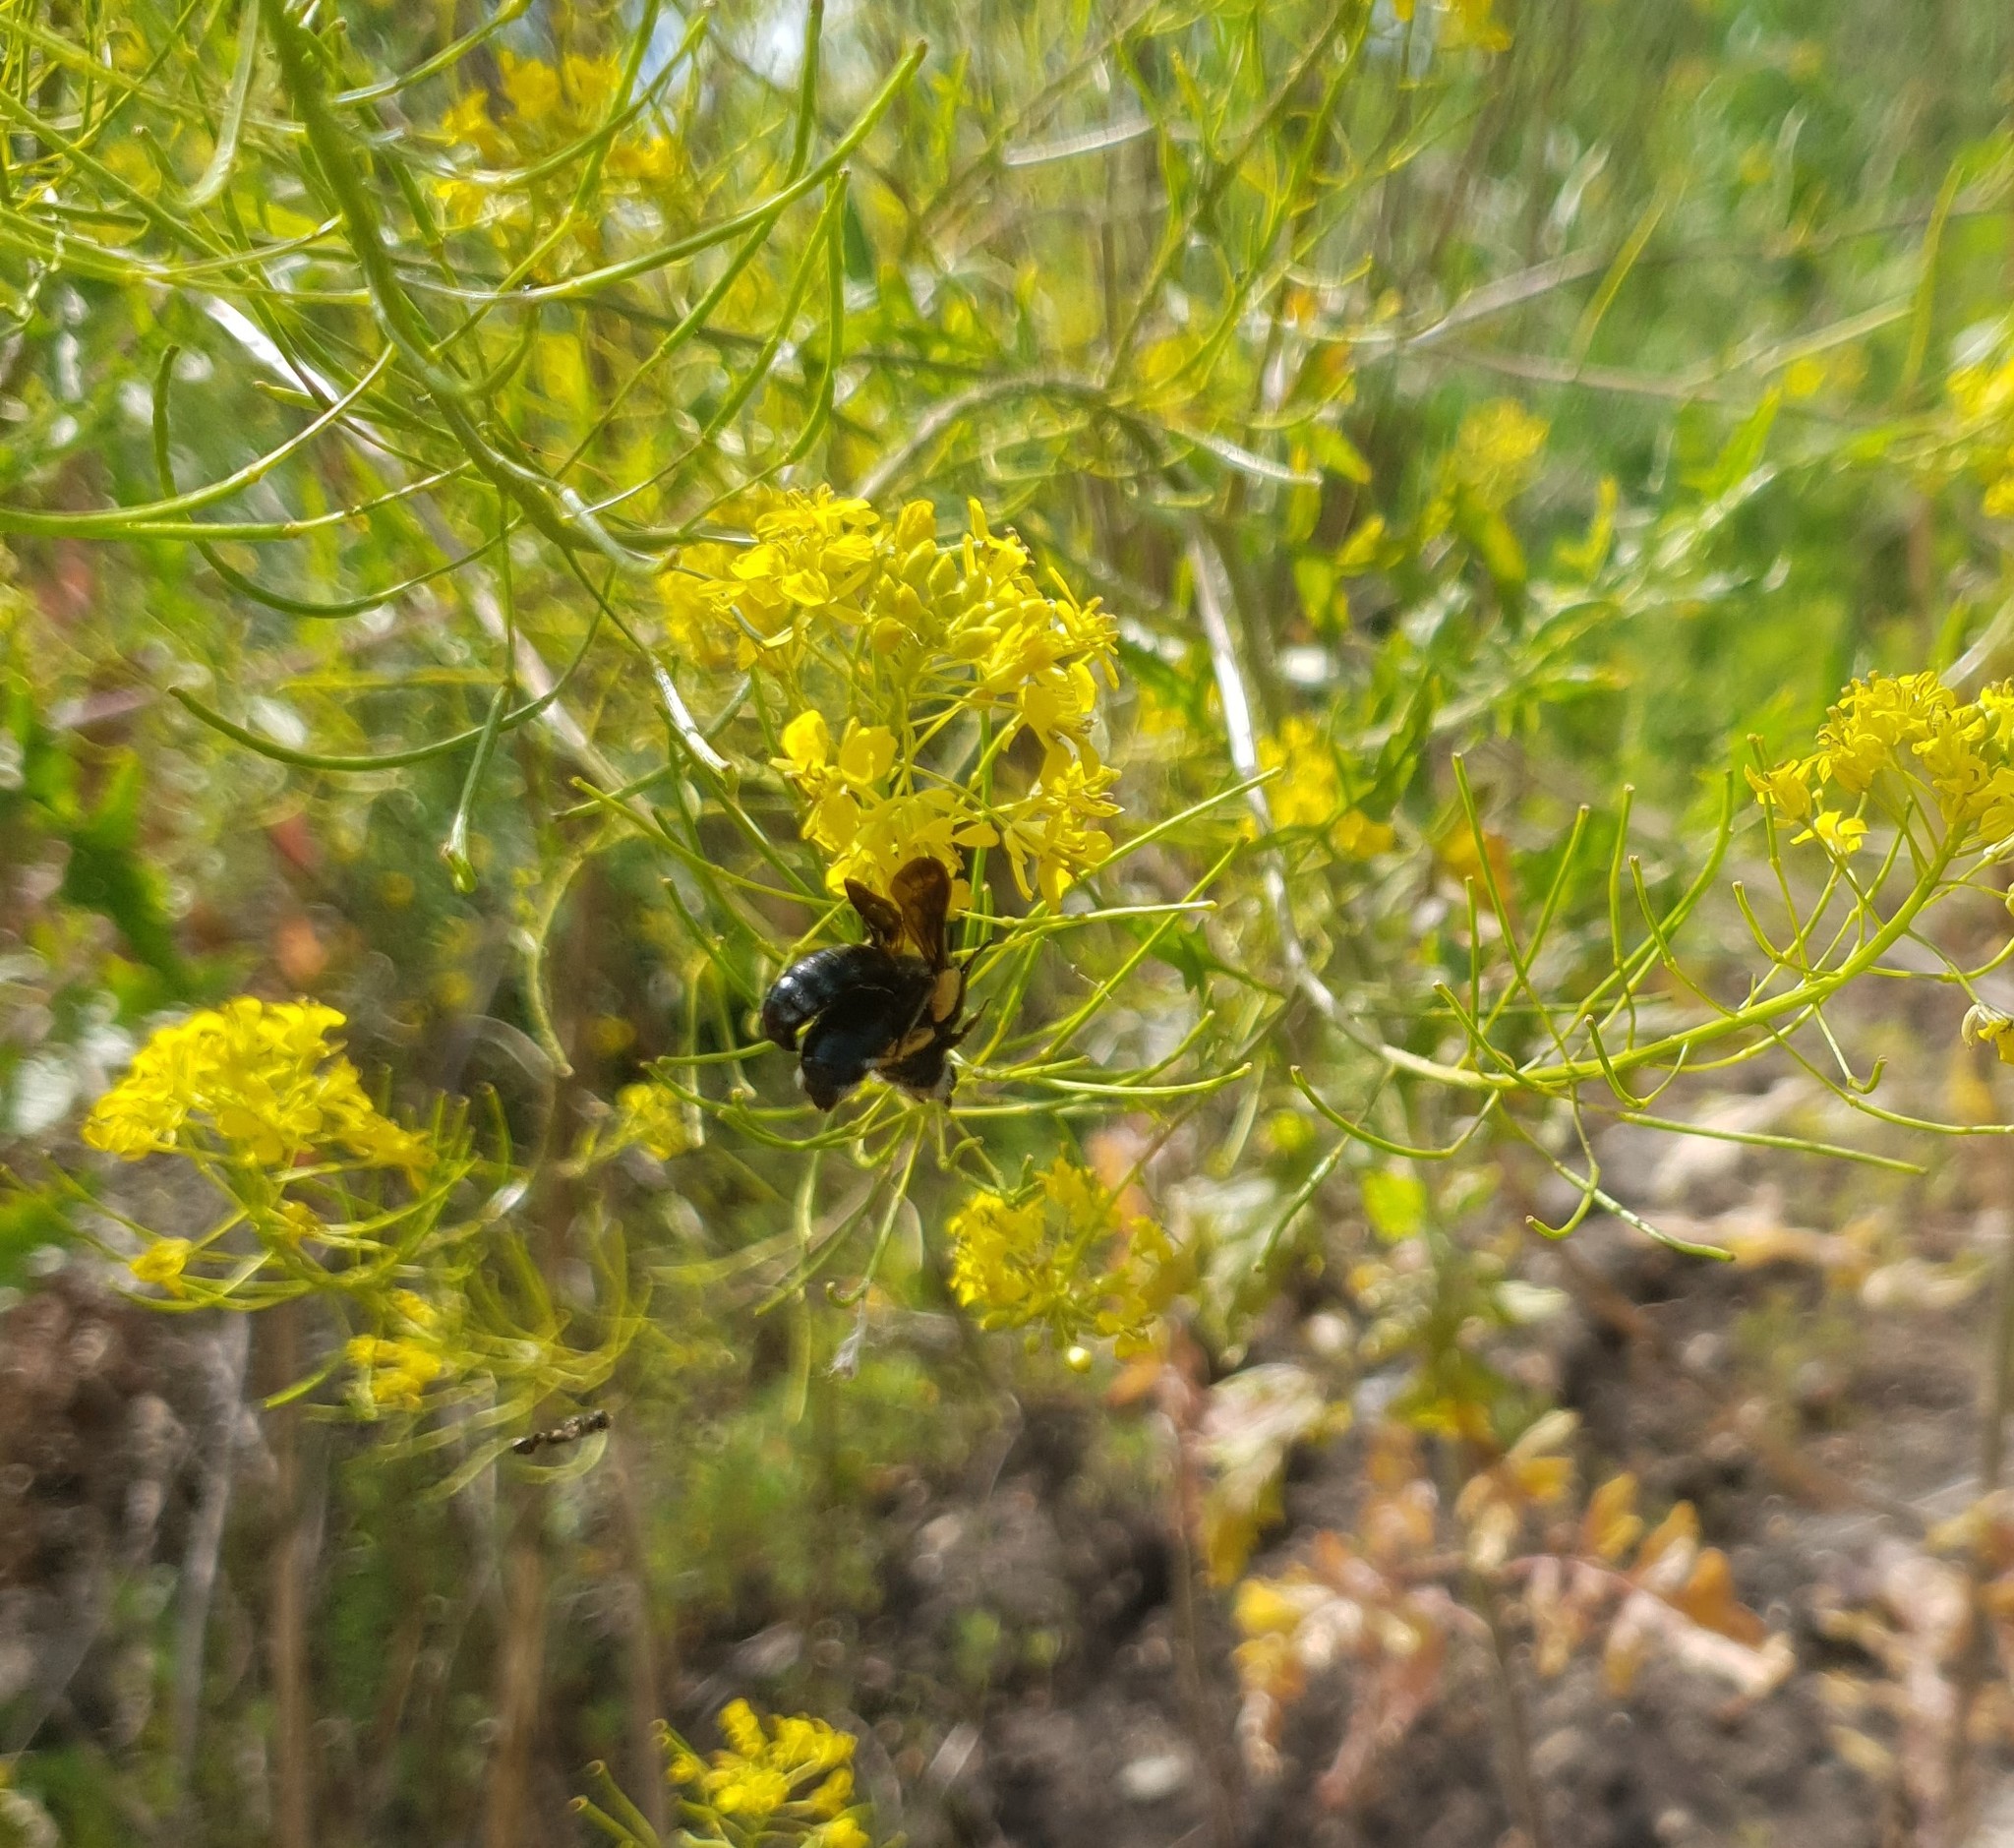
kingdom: Animalia
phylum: Arthropoda
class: Insecta
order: Hymenoptera
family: Andrenidae
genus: Andrena
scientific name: Andrena agilissima
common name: Violet-winged mining bee
